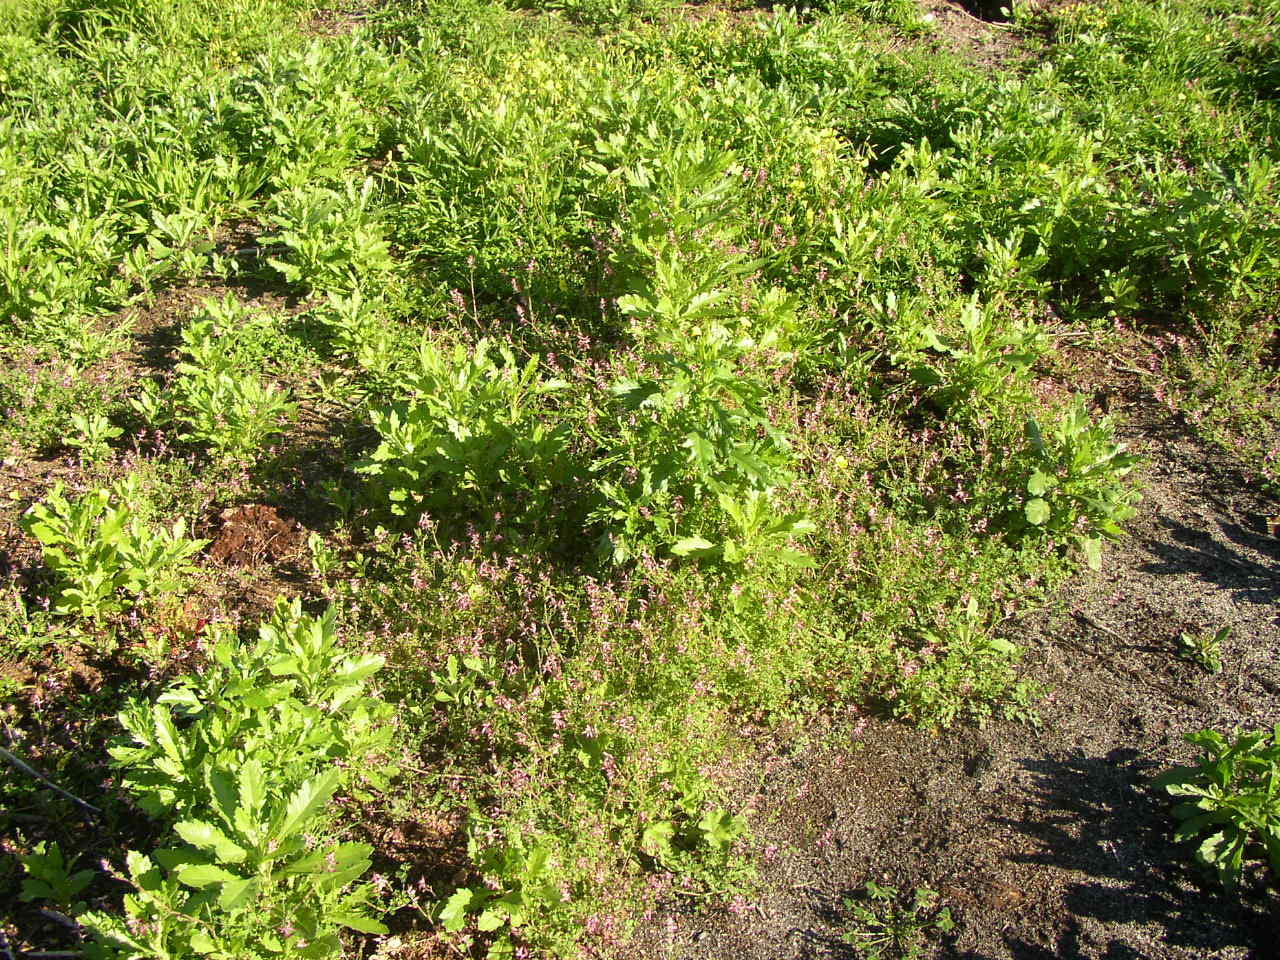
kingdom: Plantae
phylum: Tracheophyta
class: Magnoliopsida
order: Asterales
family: Asteraceae
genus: Senecio
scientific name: Senecio pterophorus
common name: Shoddy ragwort
